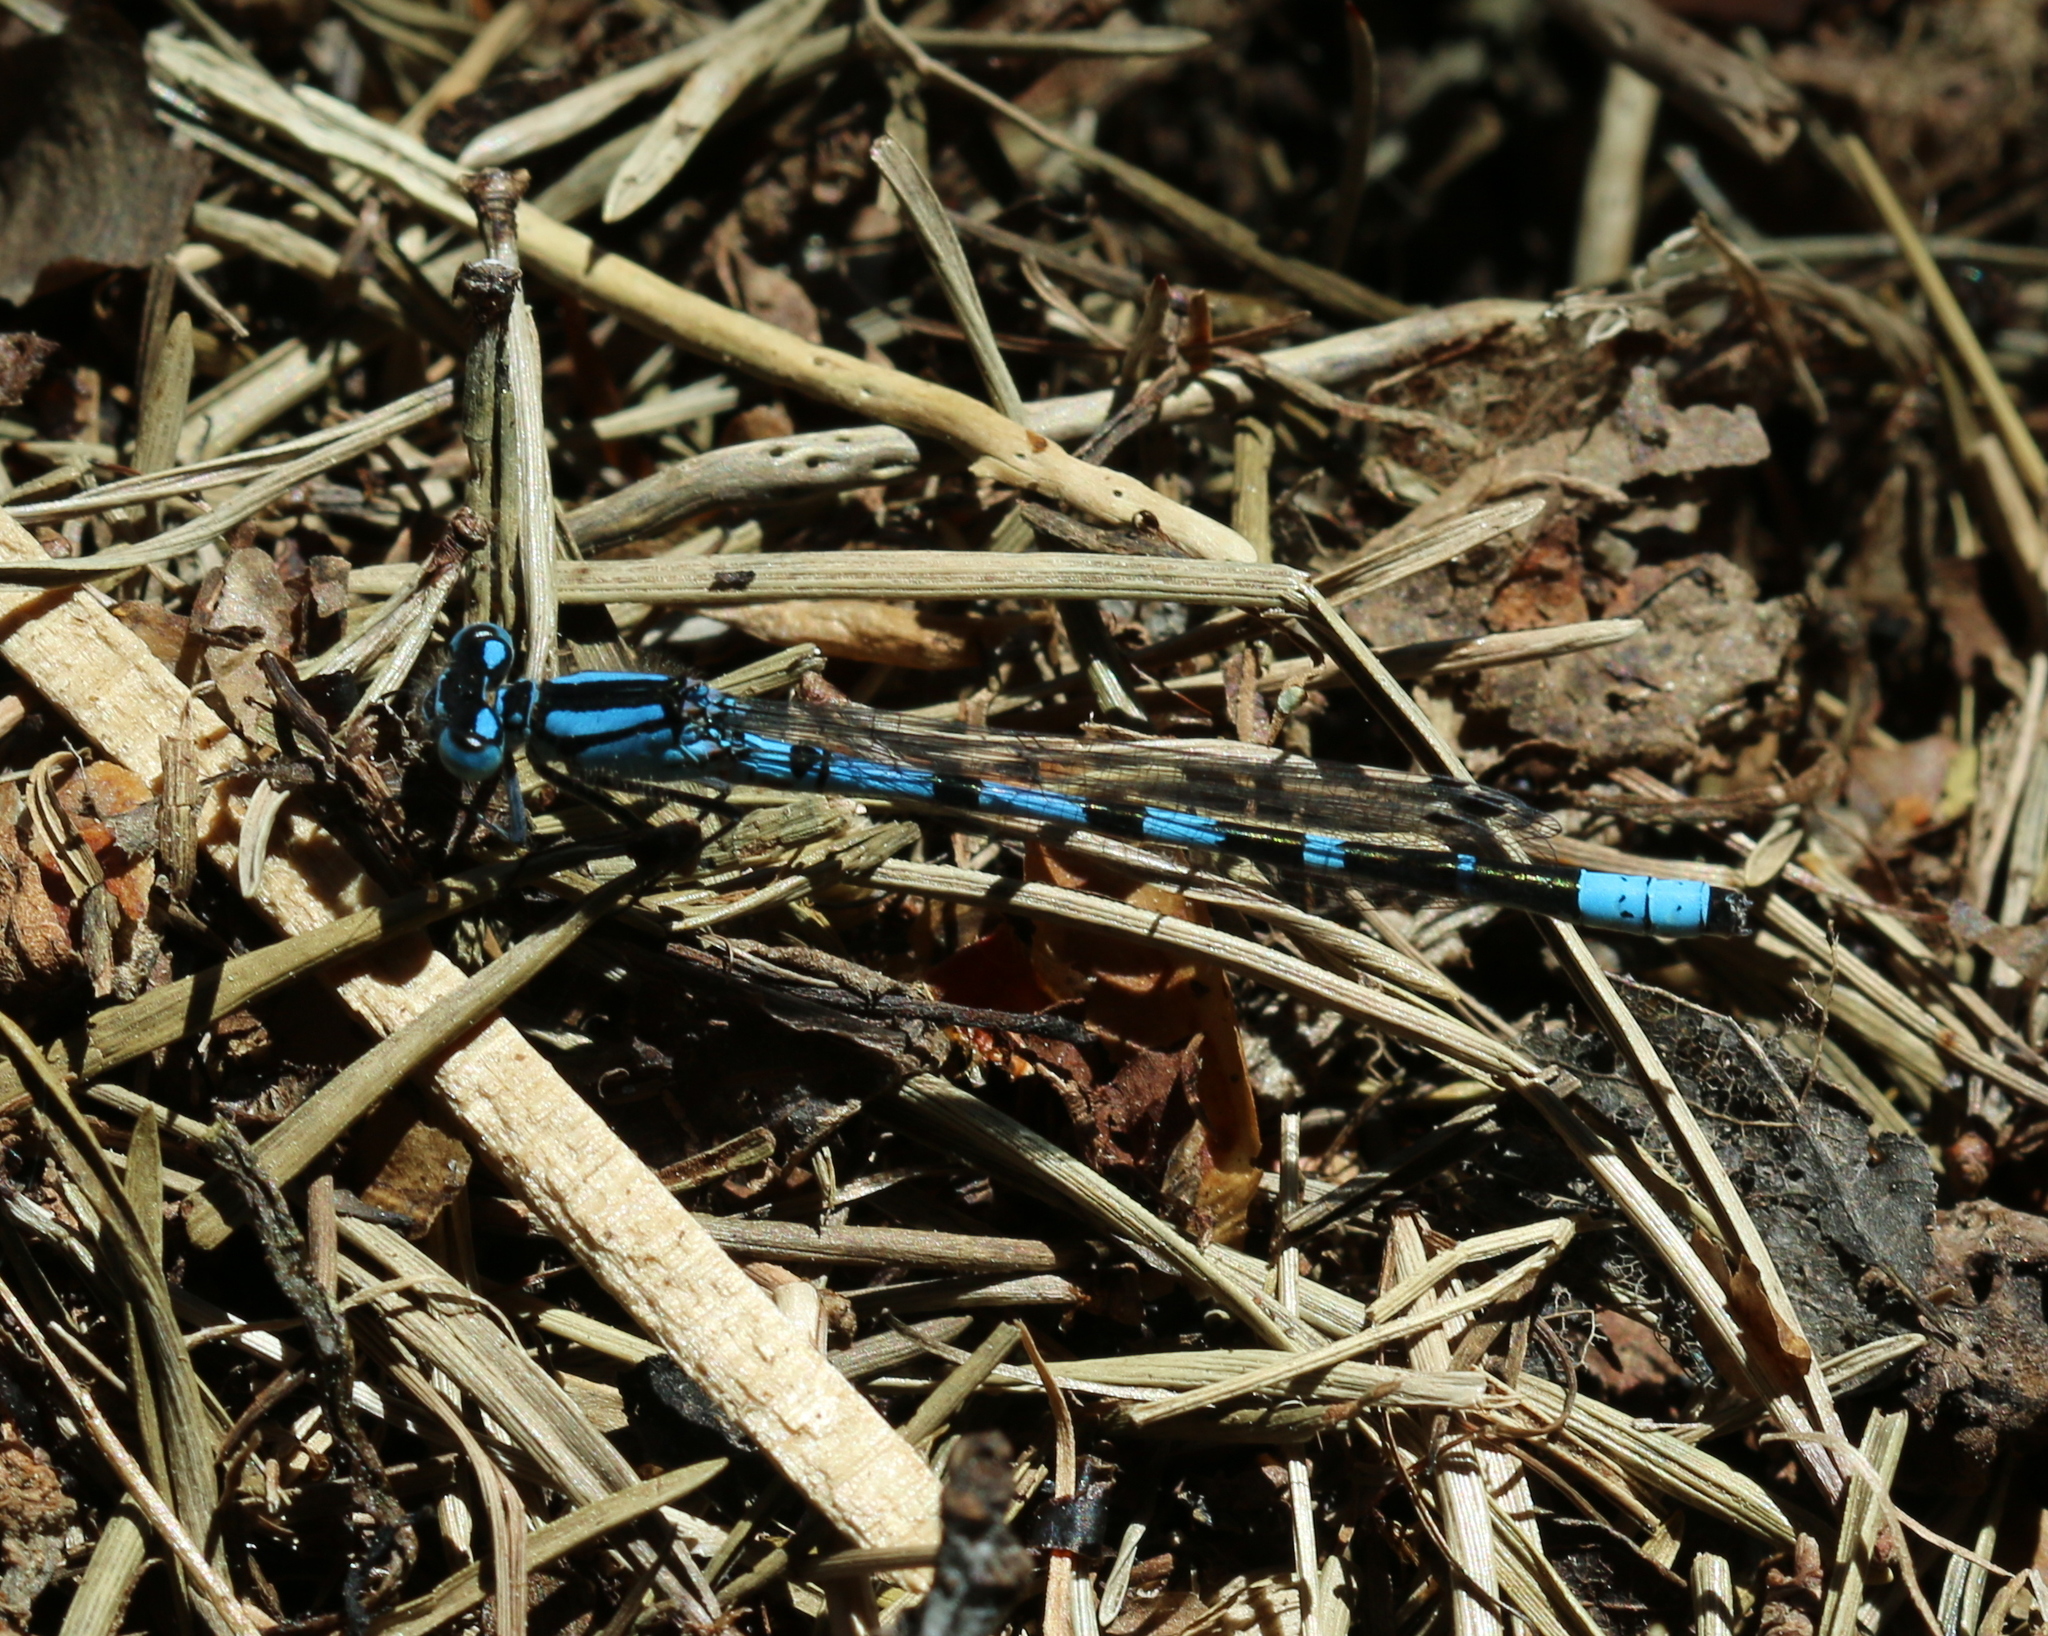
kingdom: Animalia
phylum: Arthropoda
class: Insecta
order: Odonata
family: Coenagrionidae
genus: Enallagma
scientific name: Enallagma cyathigerum
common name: Common blue damselfly
